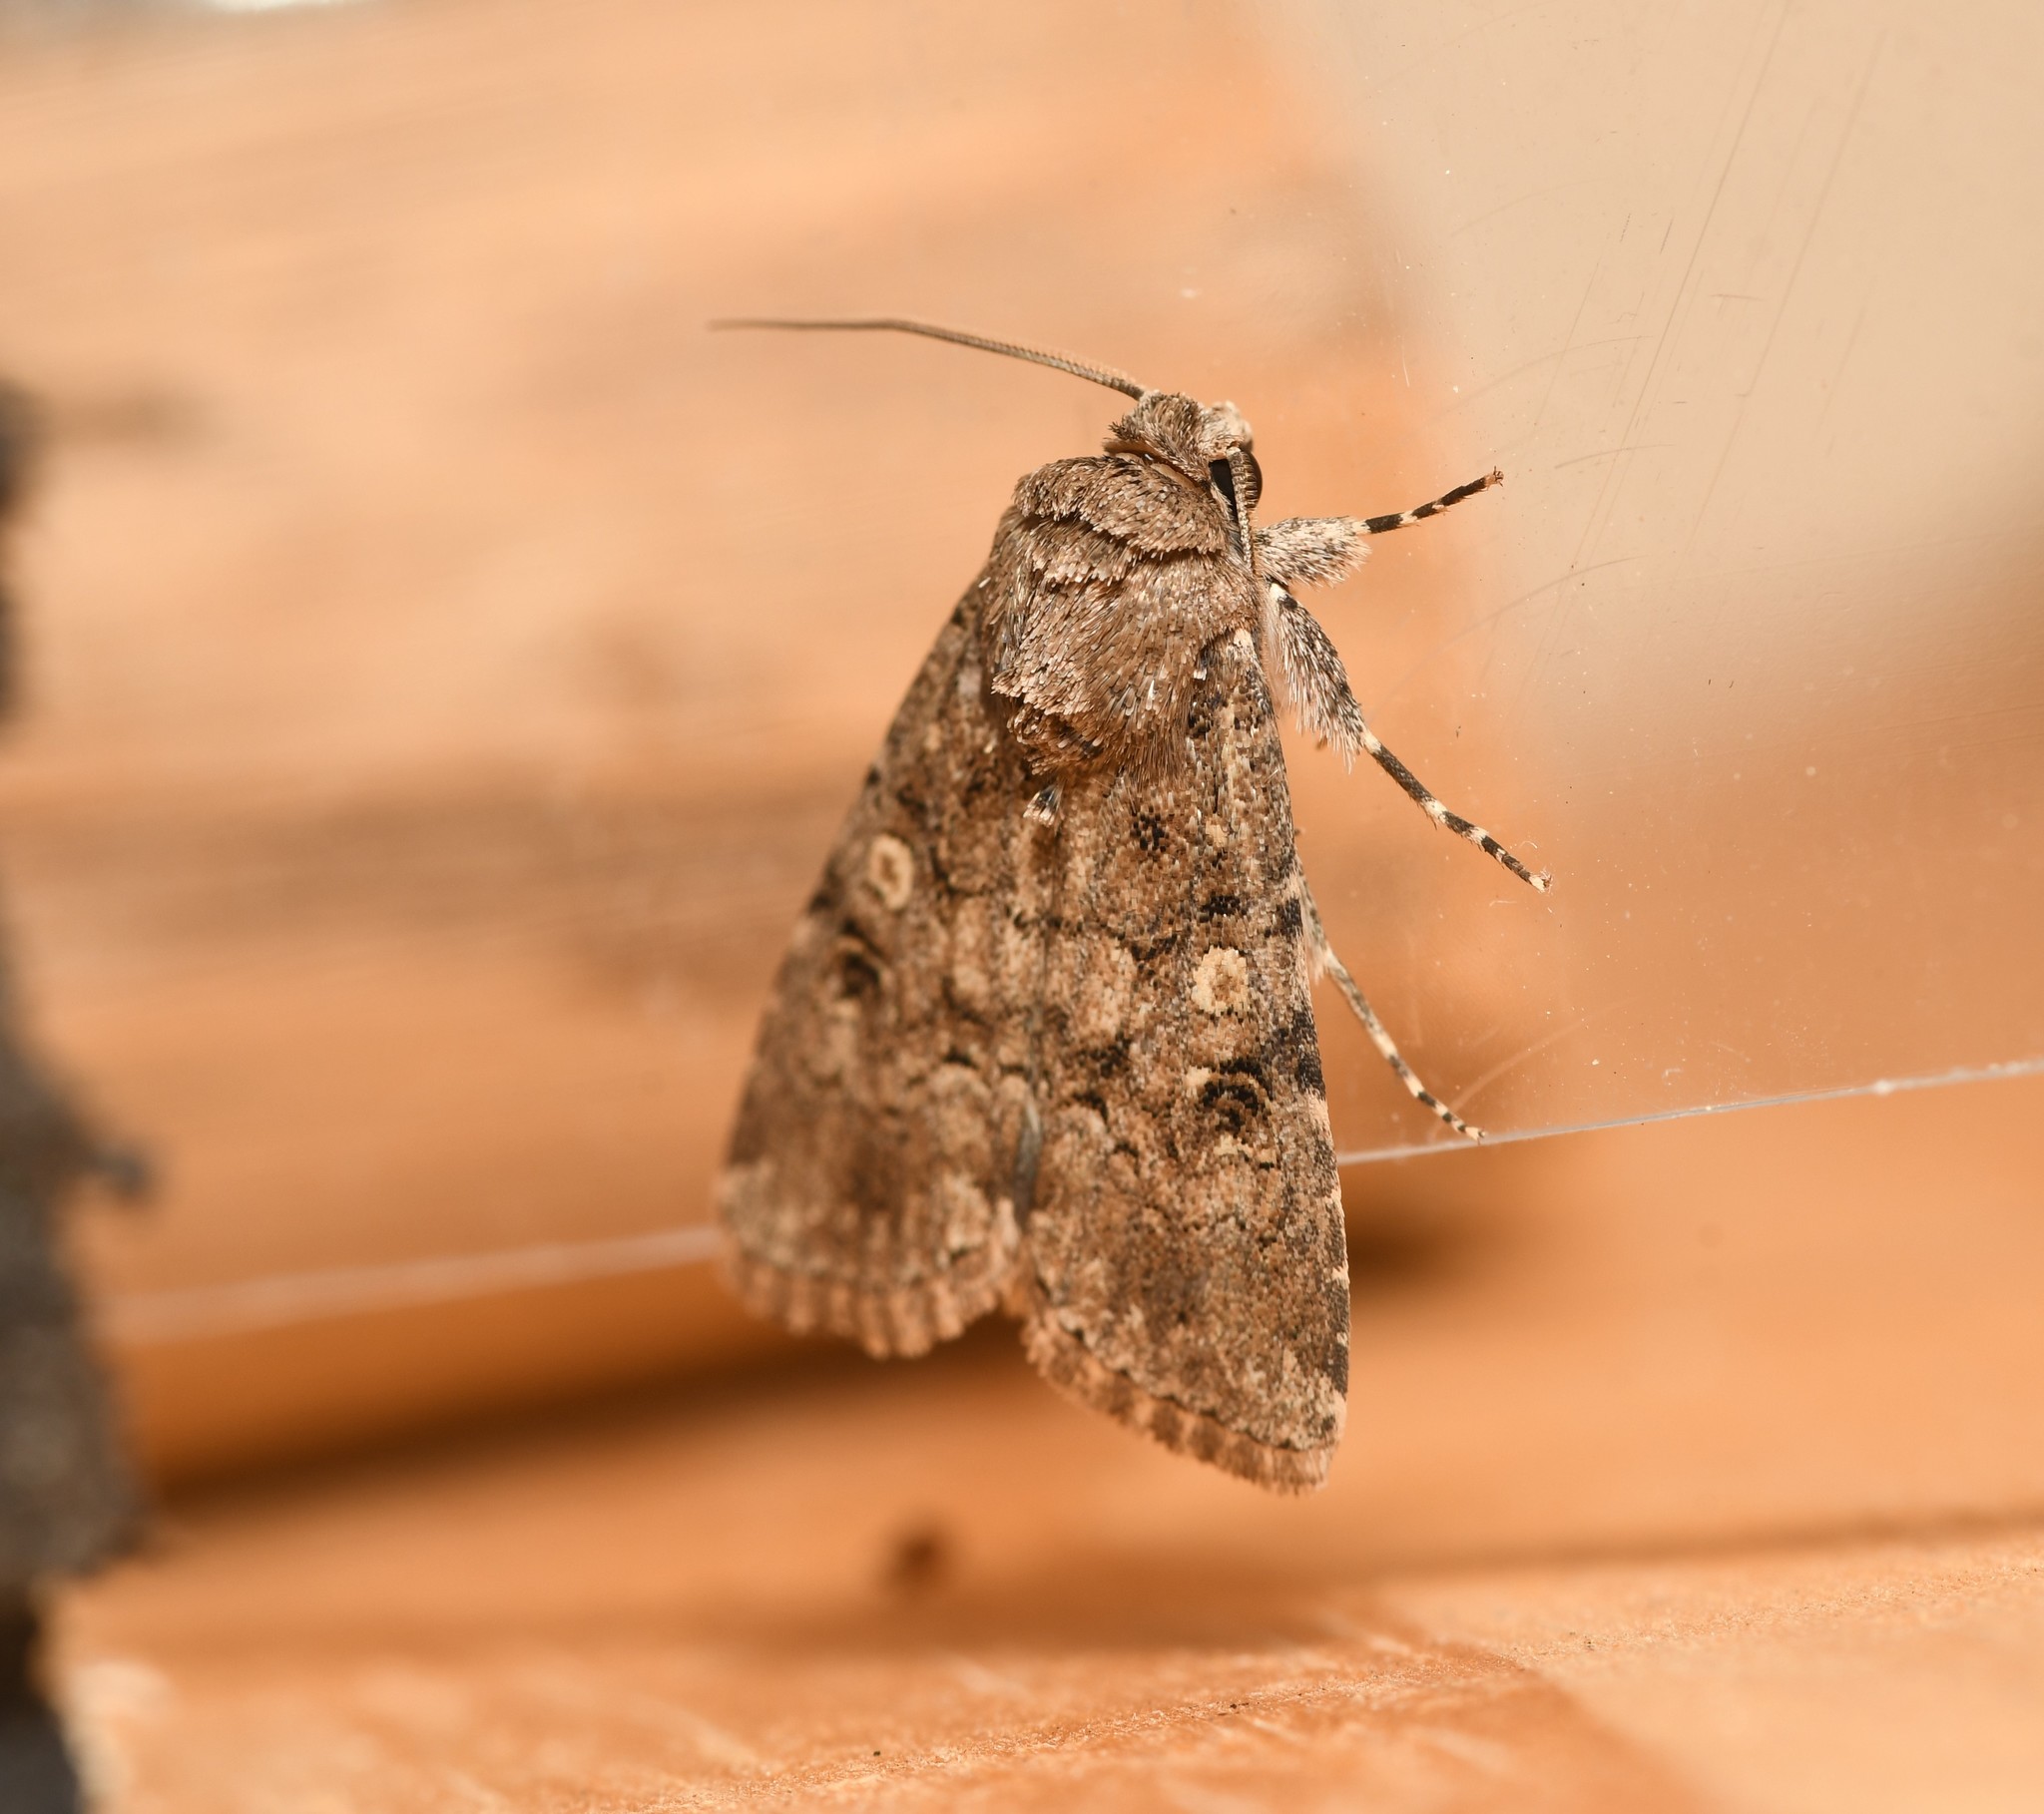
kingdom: Animalia
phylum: Arthropoda
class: Insecta
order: Lepidoptera
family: Noctuidae
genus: Spodoptera
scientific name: Spodoptera cilium
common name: Dark mottled willow
